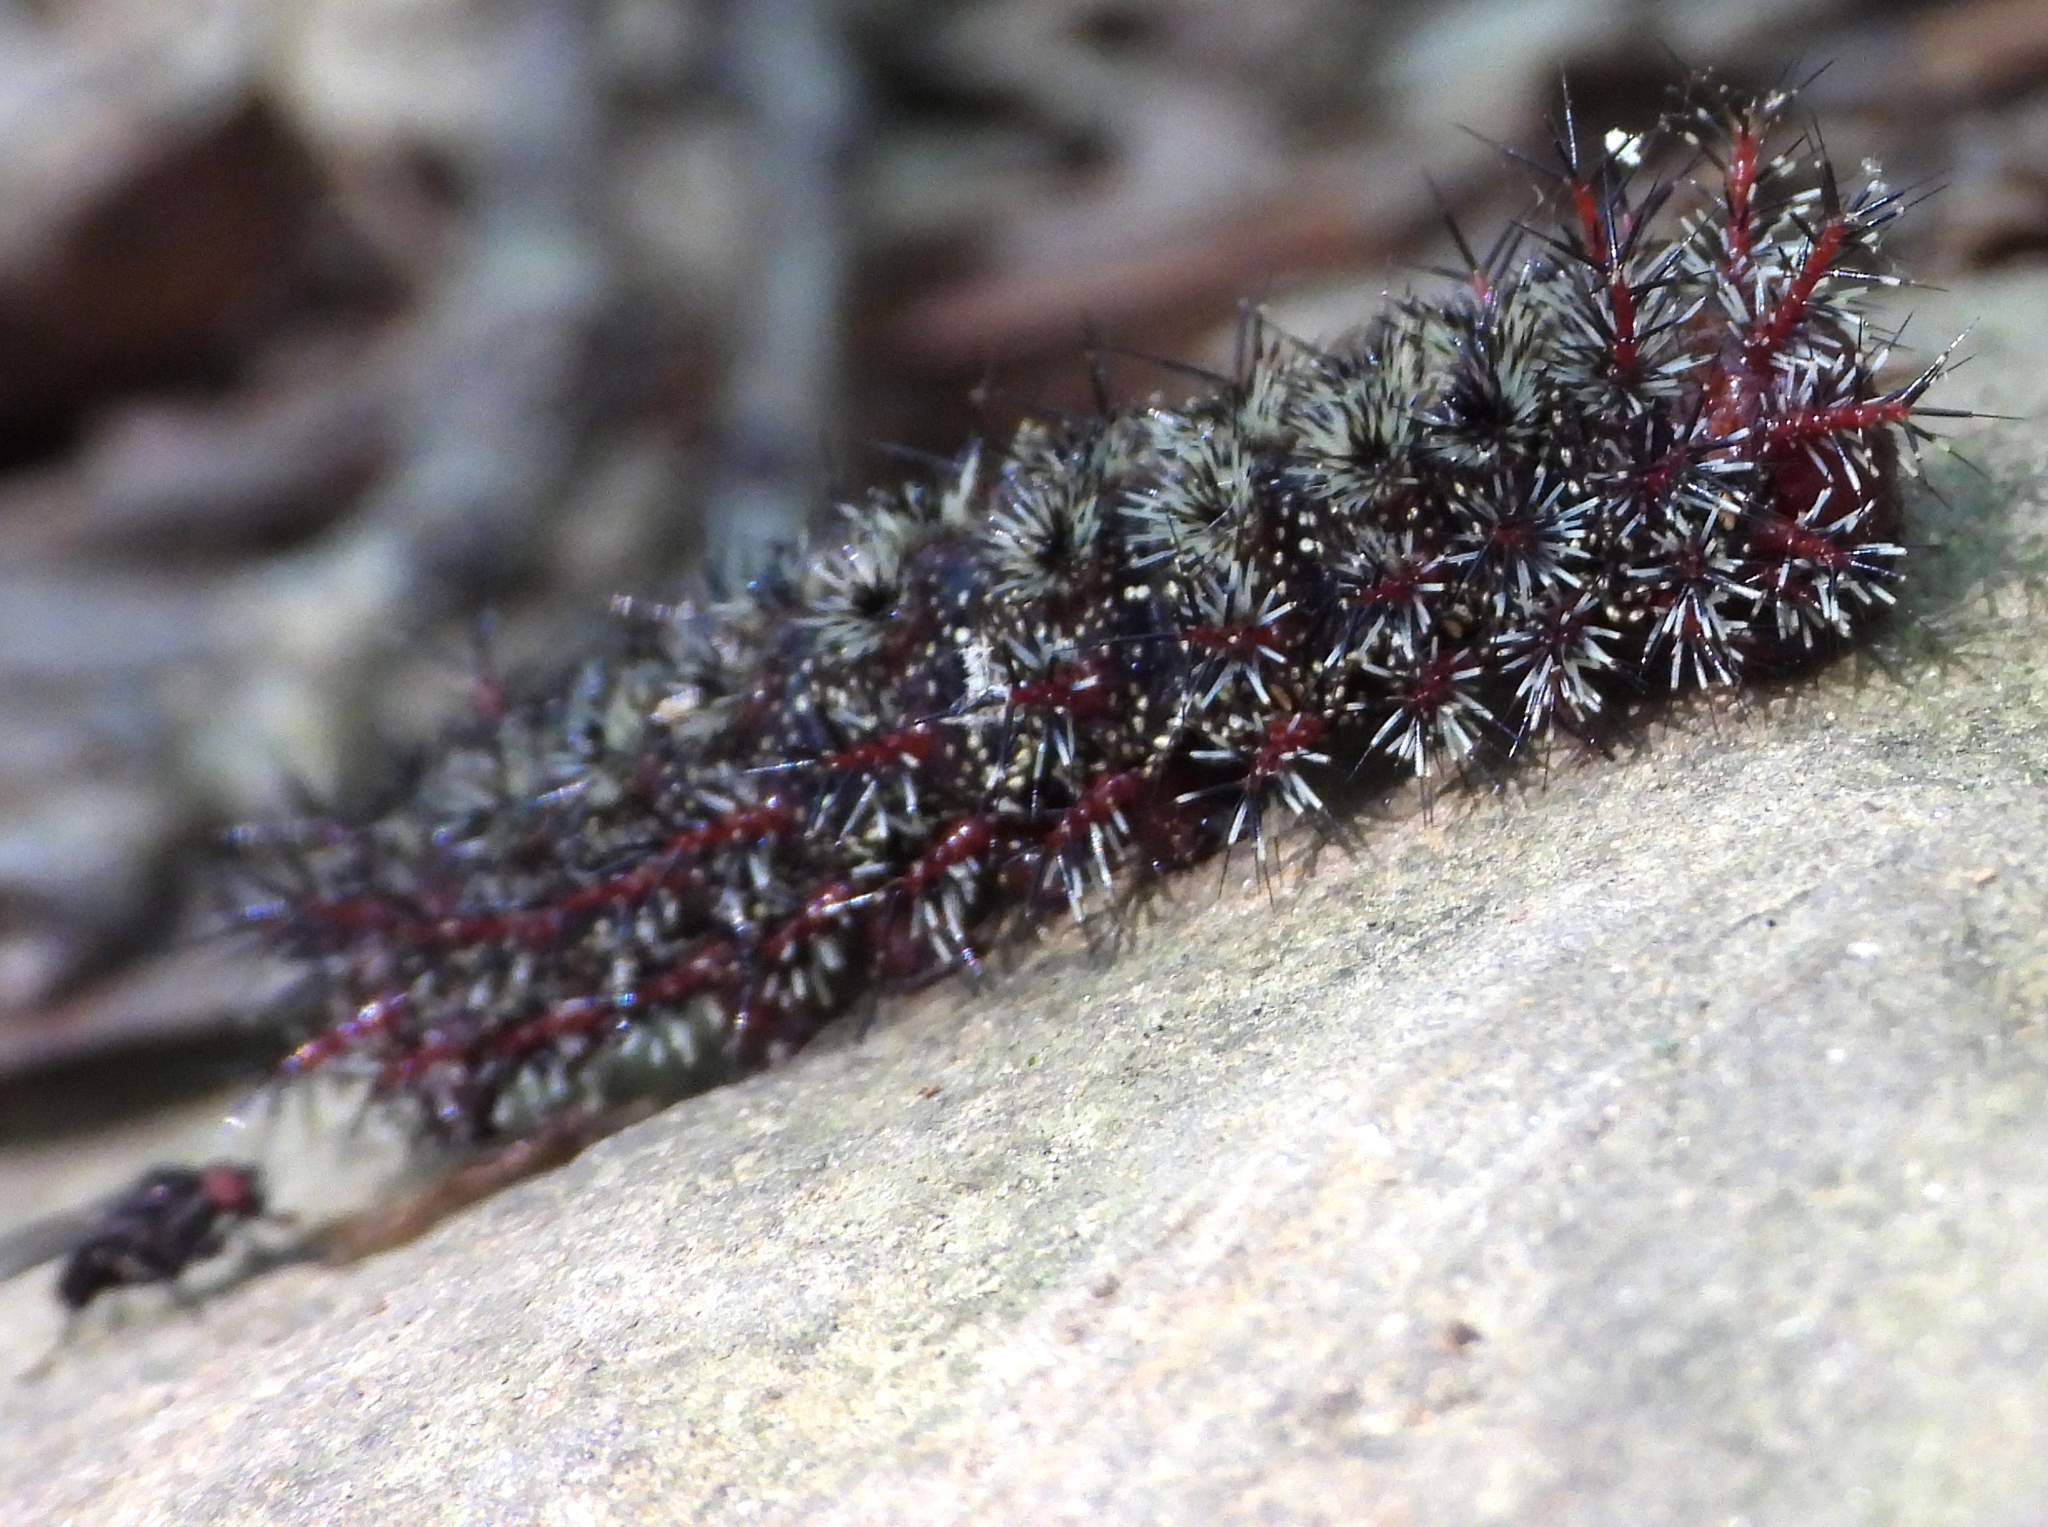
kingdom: Animalia
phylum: Arthropoda
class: Insecta
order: Lepidoptera
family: Saturniidae
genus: Hemileuca
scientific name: Hemileuca maia
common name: Eastern buckmoth
